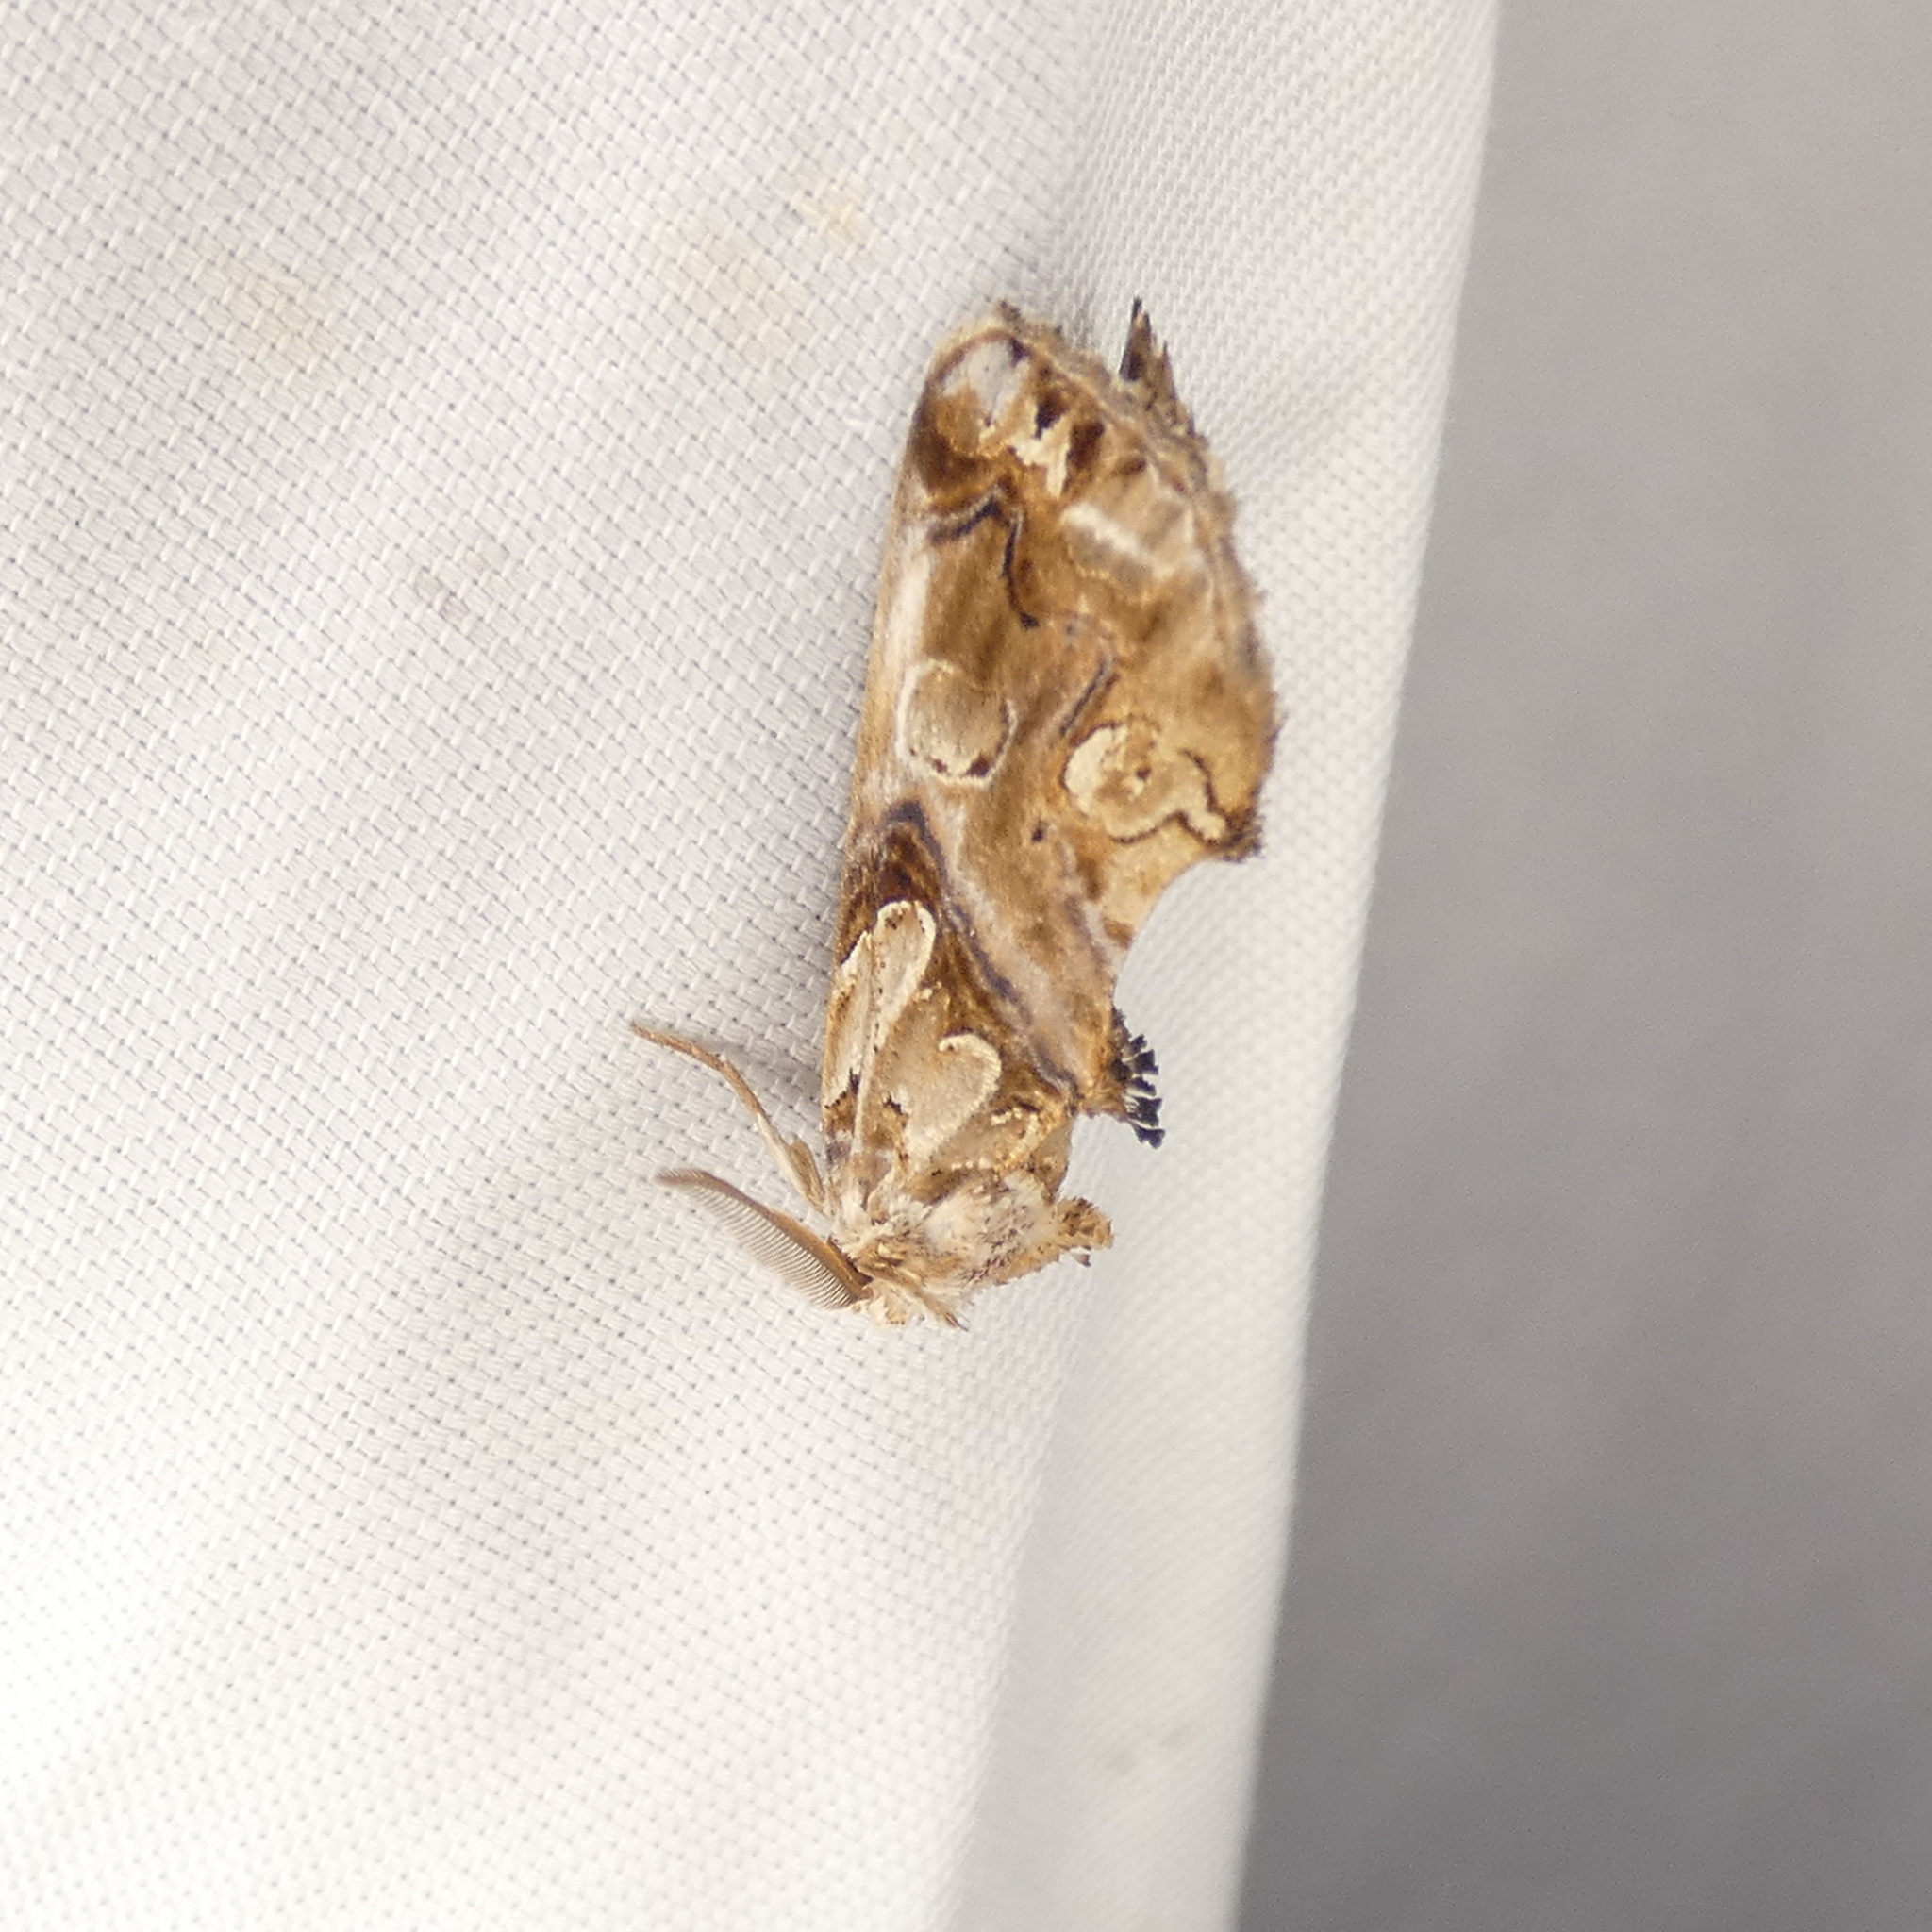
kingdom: Animalia
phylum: Arthropoda
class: Insecta
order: Lepidoptera
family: Erebidae
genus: Plusiodonta
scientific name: Plusiodonta compressipalpis
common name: Moonseed moth
